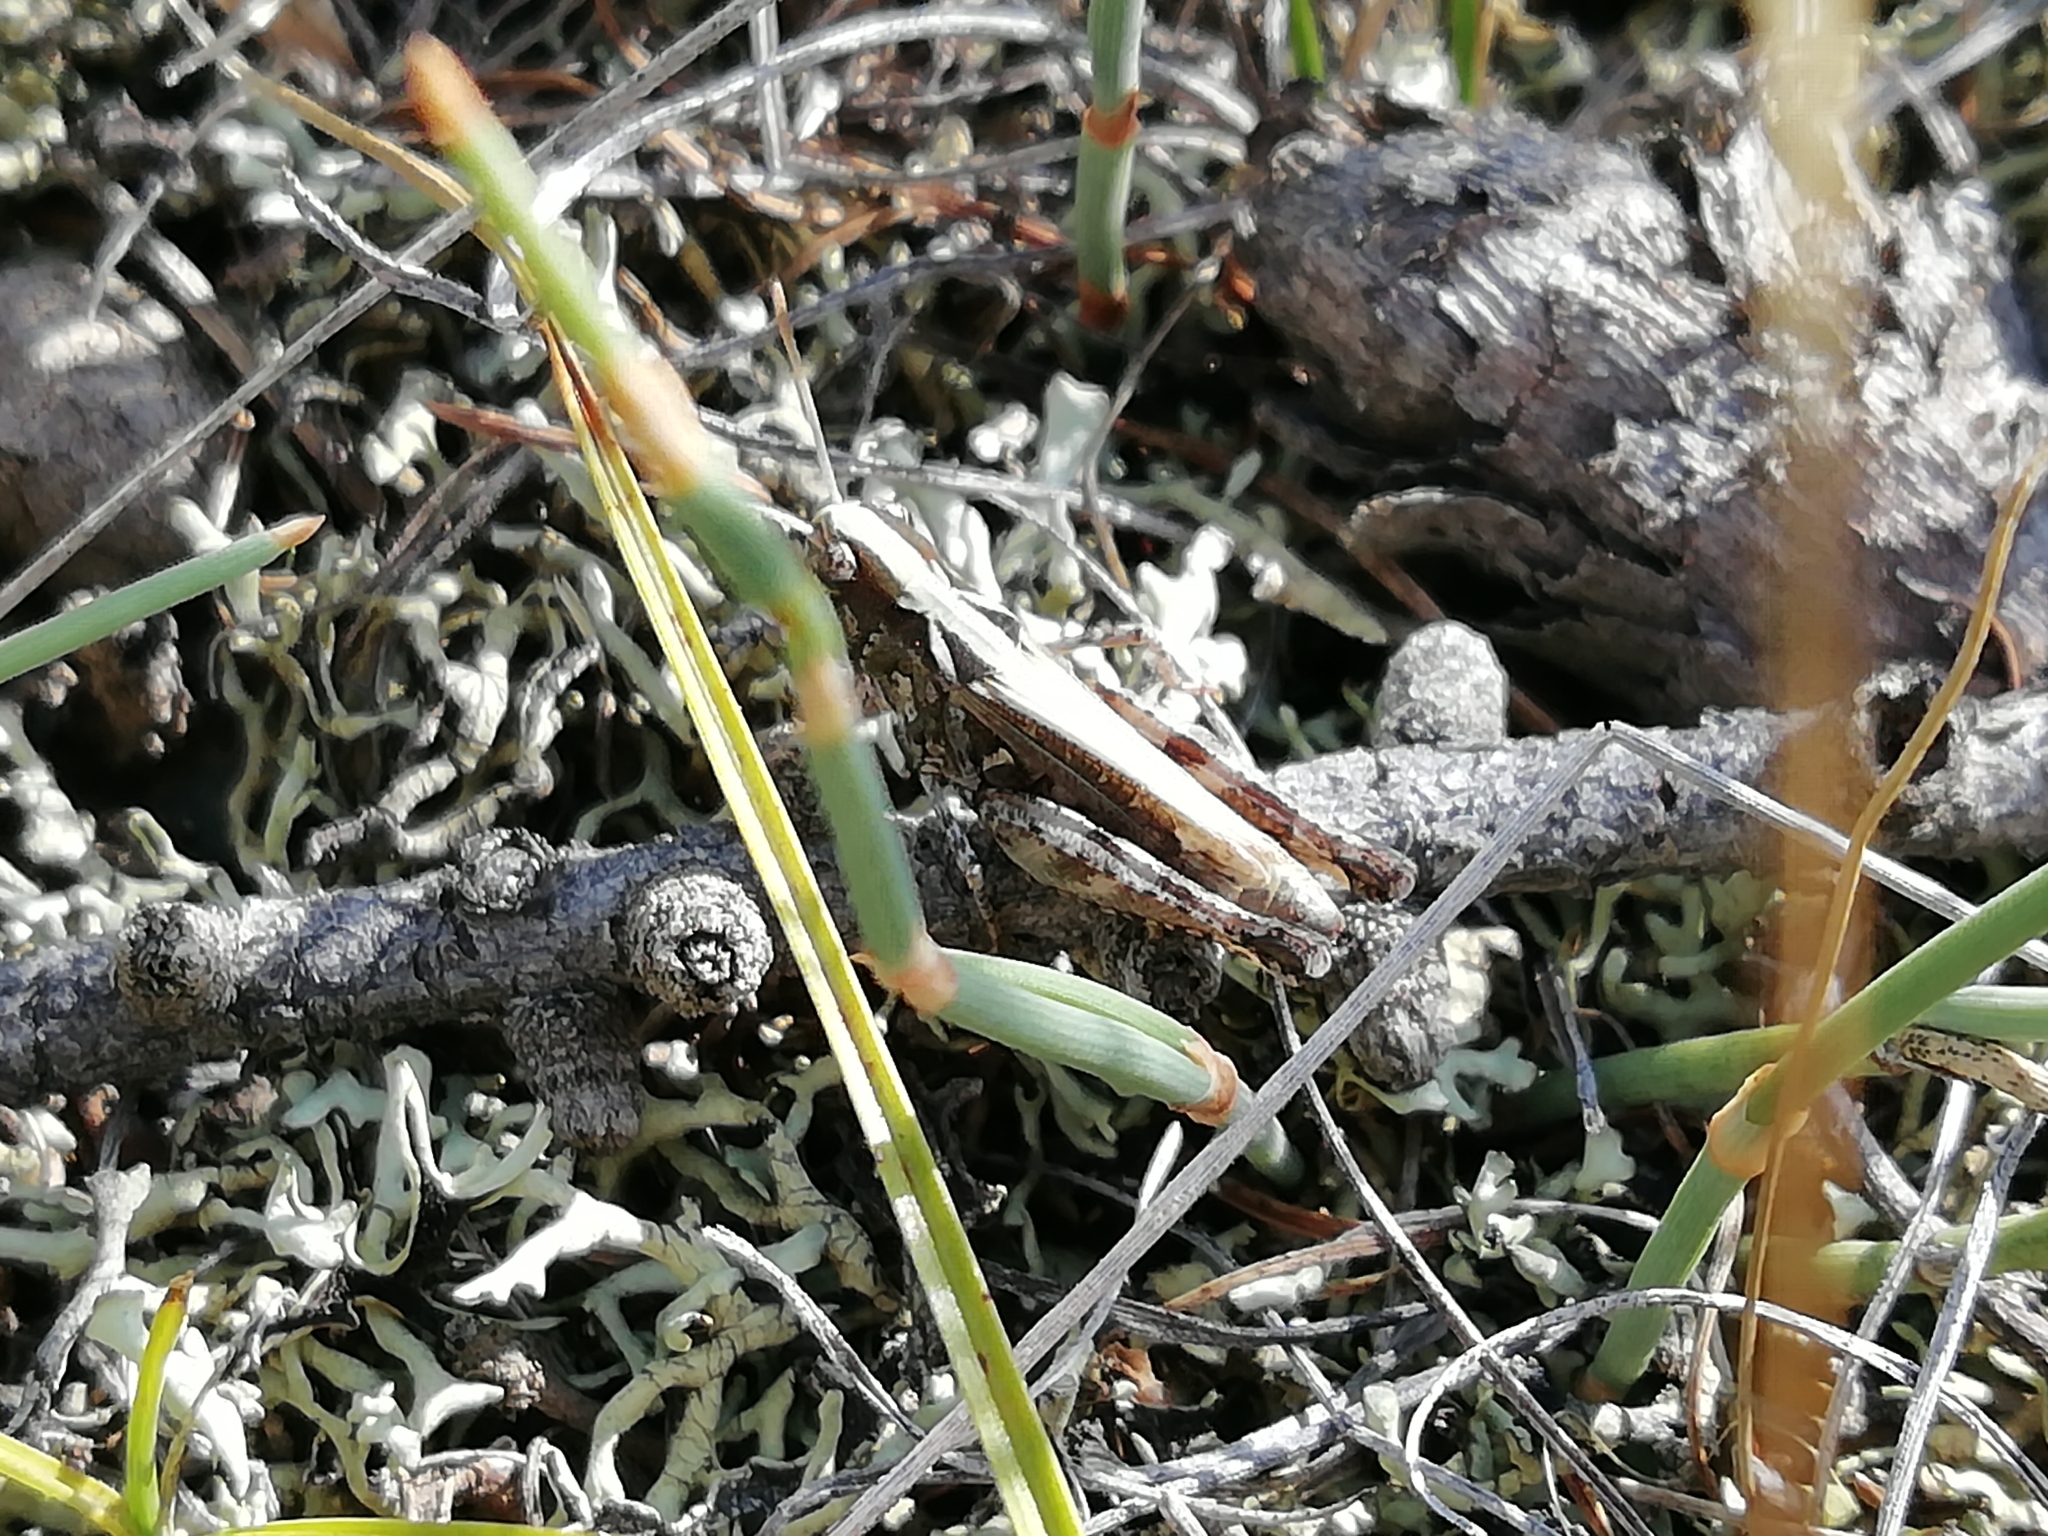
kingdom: Animalia
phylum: Arthropoda
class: Insecta
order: Orthoptera
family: Acrididae
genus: Myrmeleotettix
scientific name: Myrmeleotettix palpalis
